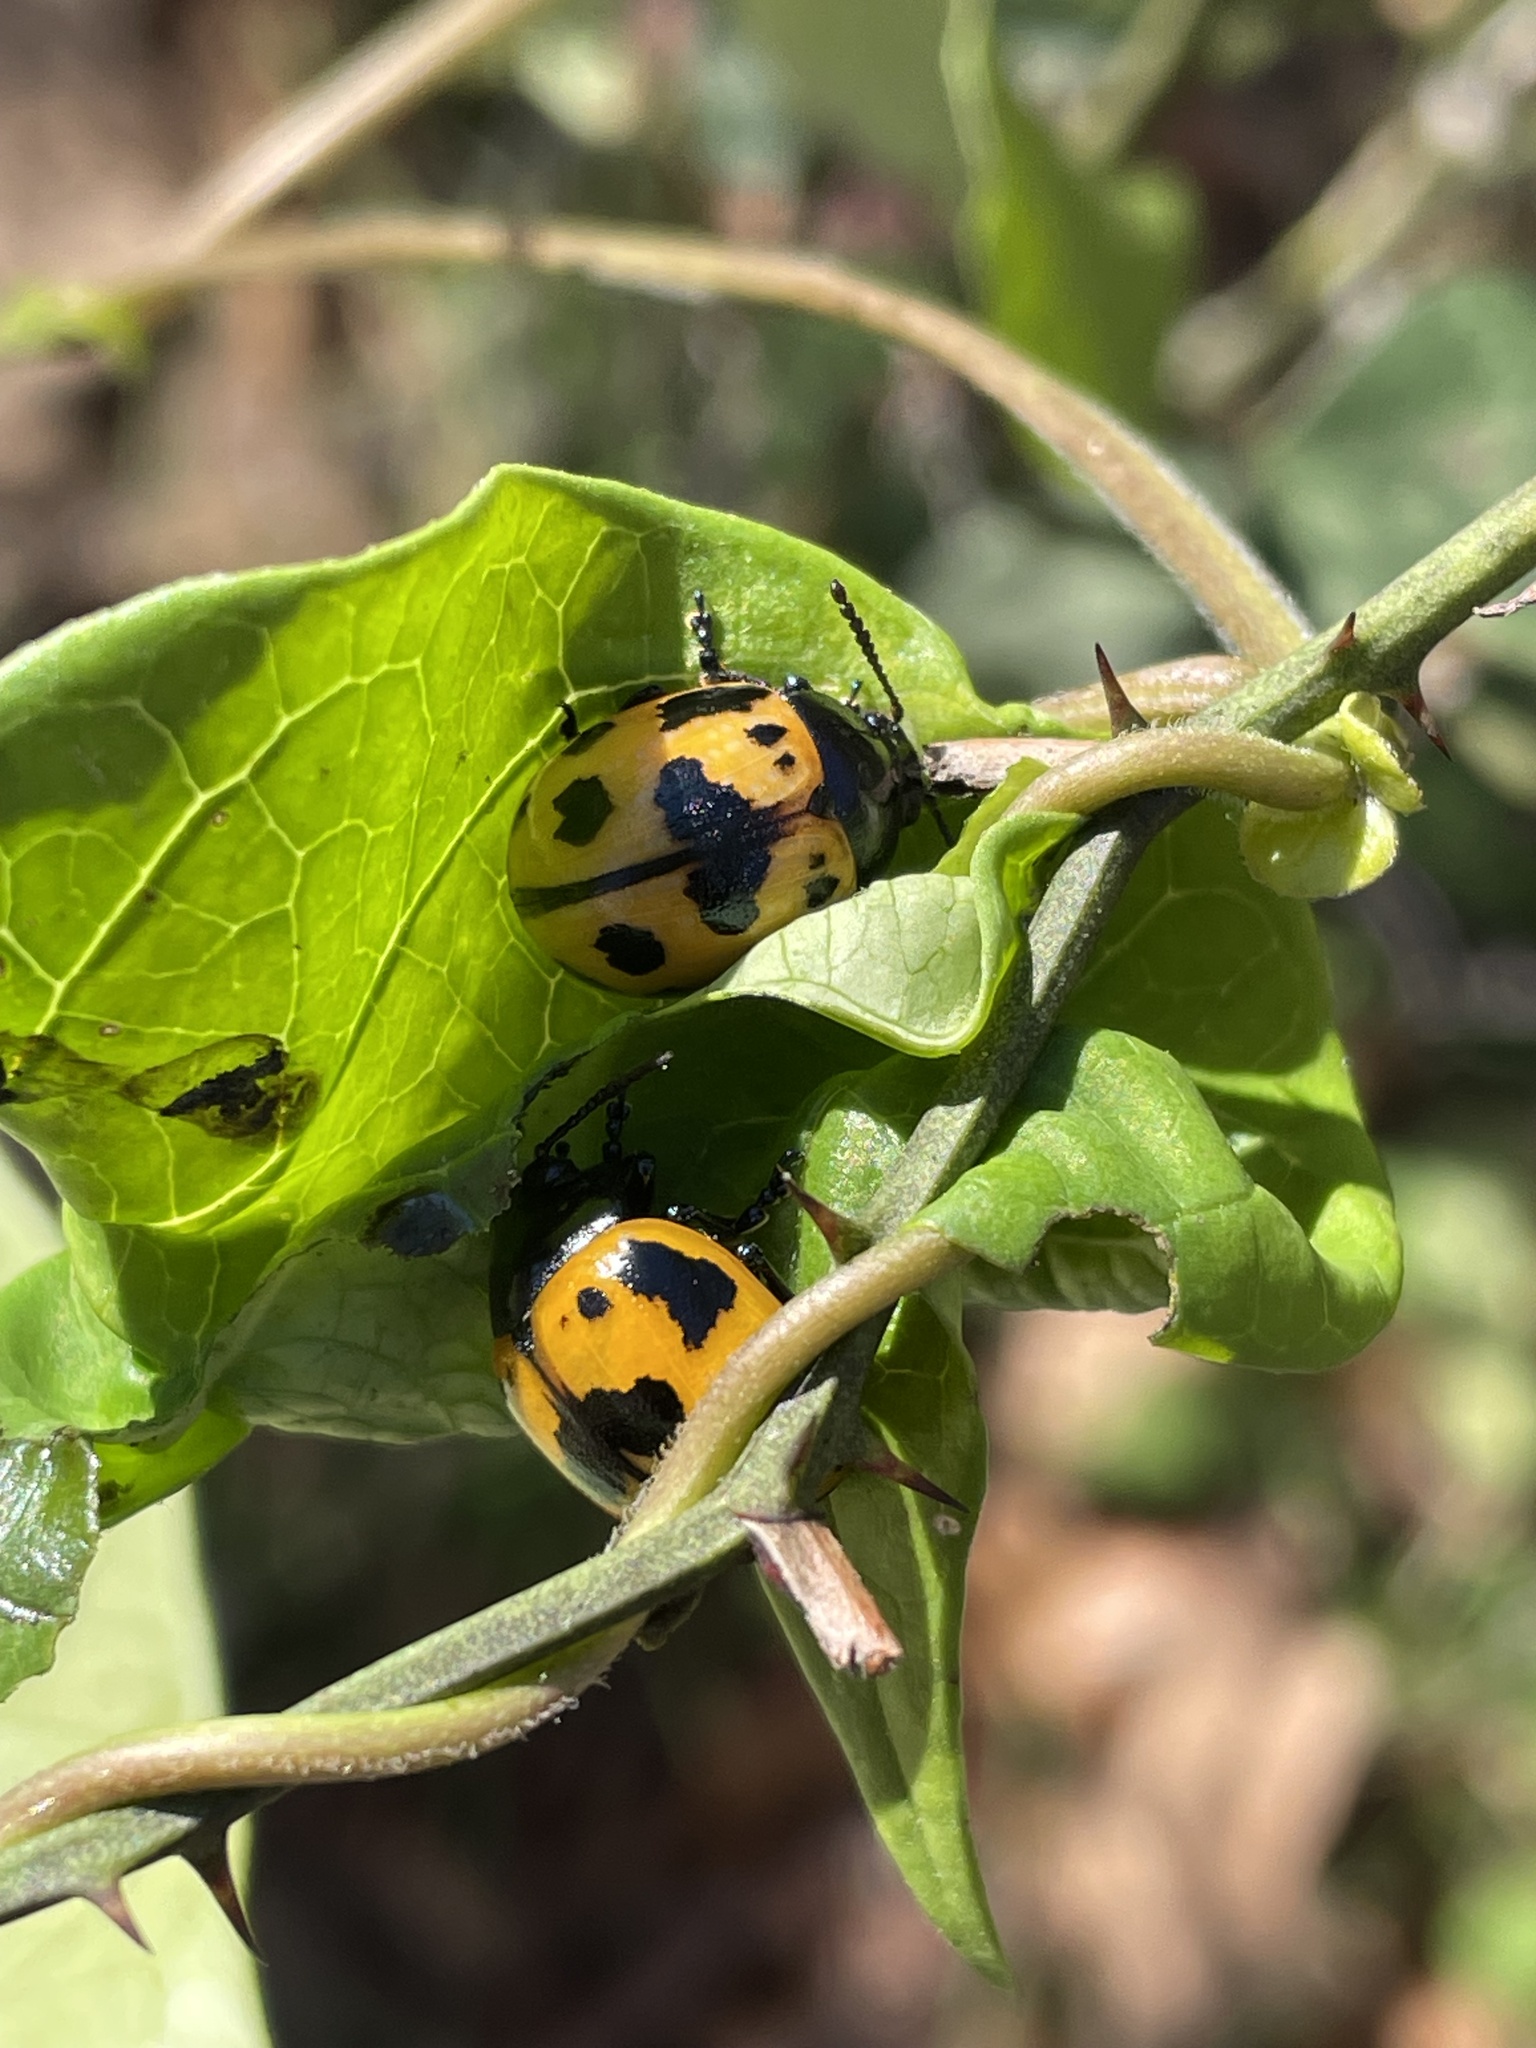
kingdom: Animalia
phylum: Arthropoda
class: Insecta
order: Coleoptera
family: Chrysomelidae
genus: Labidomera
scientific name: Labidomera clivicollis
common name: Swamp milkweed leaf beetle
